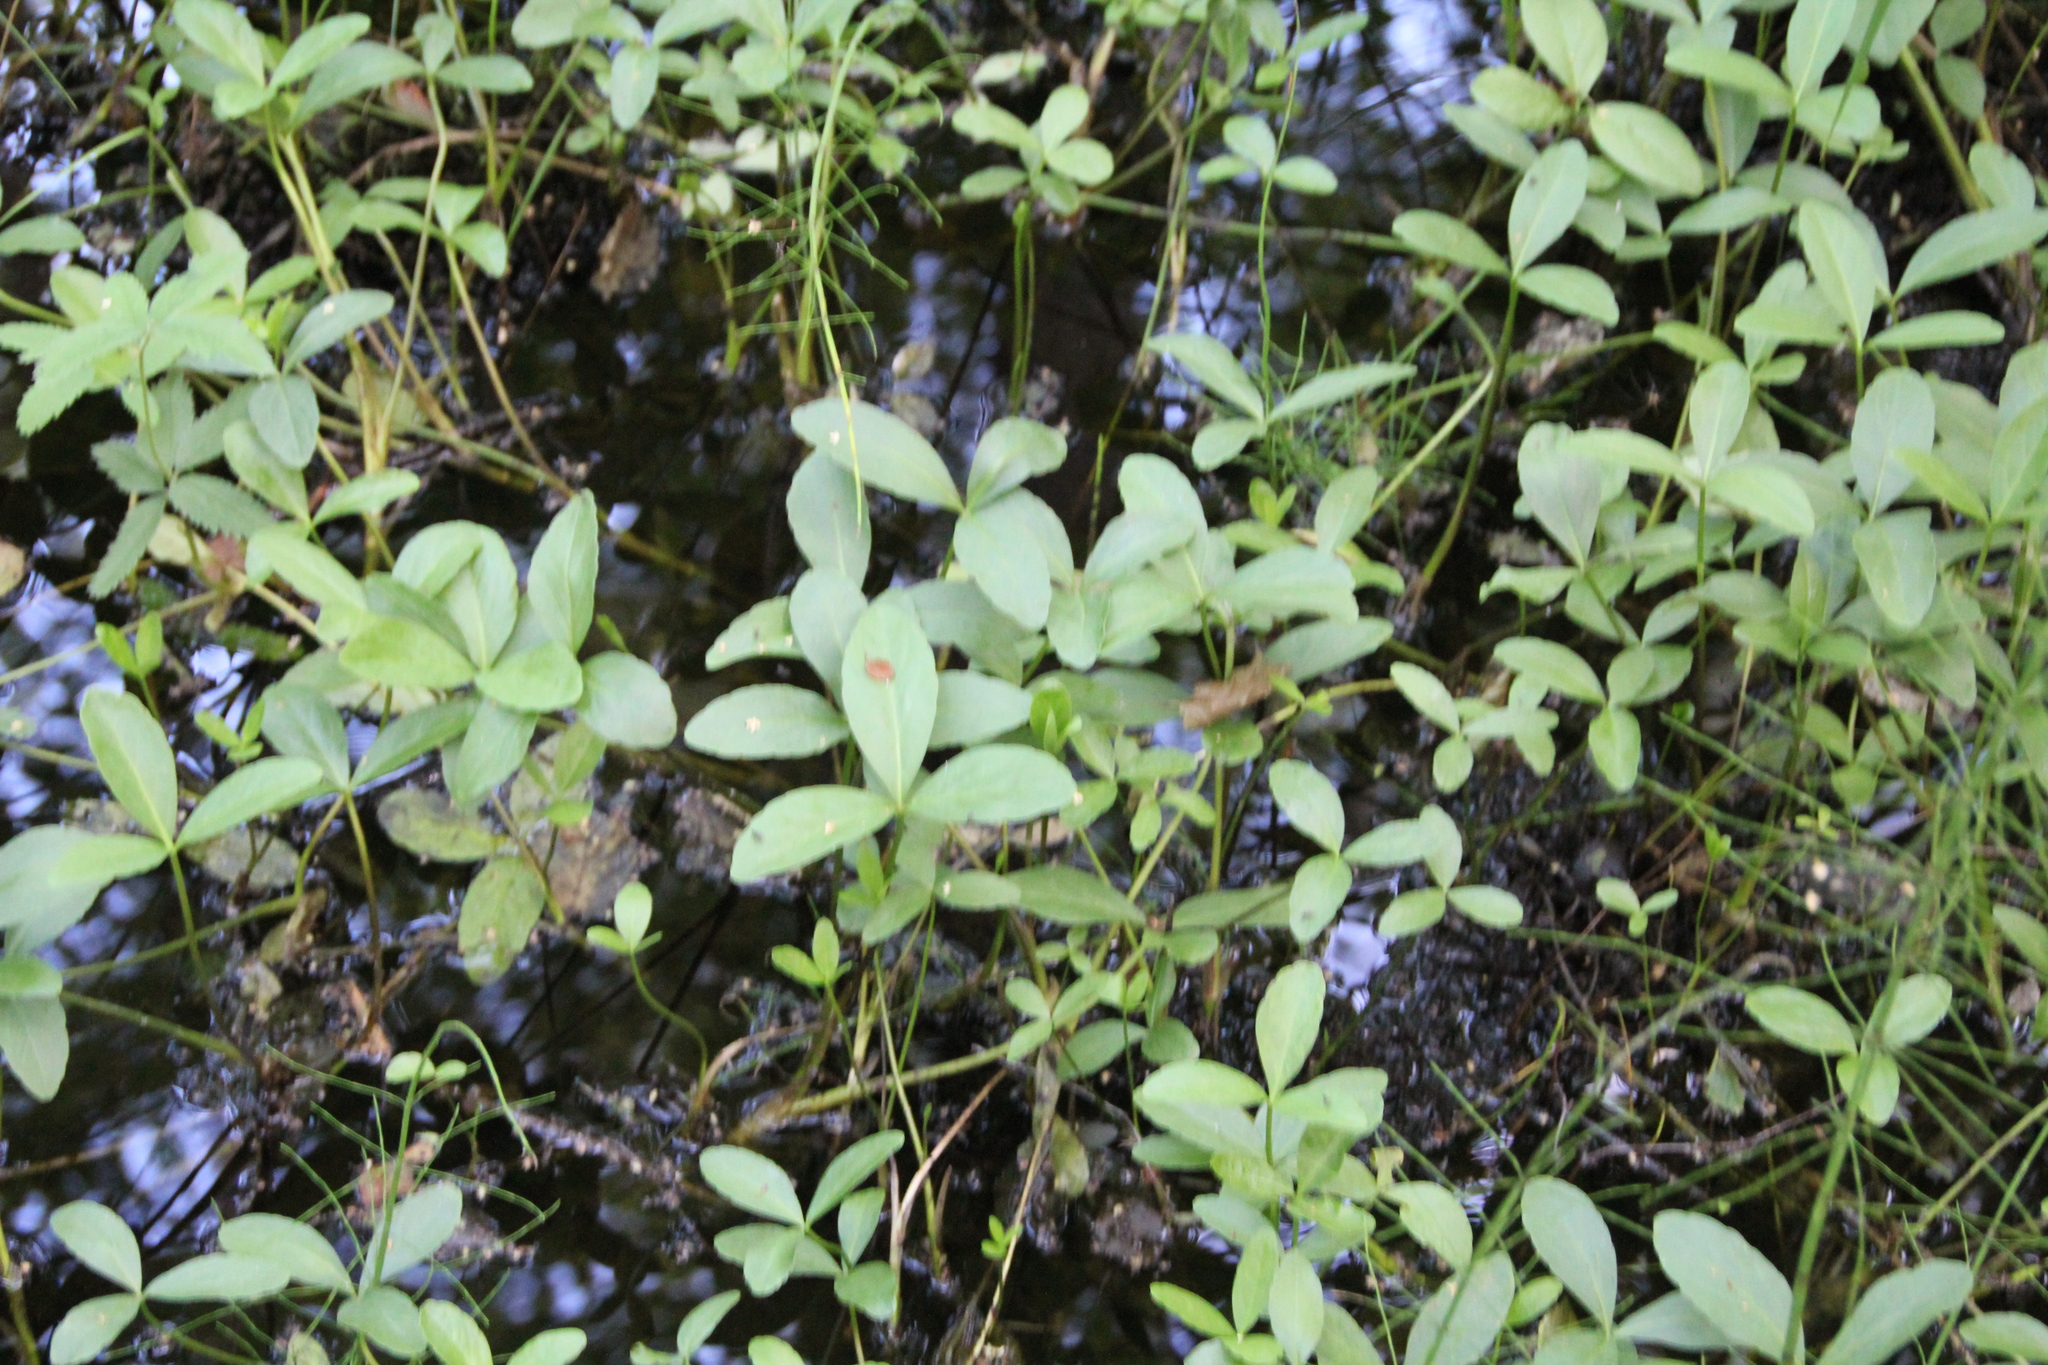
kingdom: Plantae
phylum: Tracheophyta
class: Magnoliopsida
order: Asterales
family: Menyanthaceae
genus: Menyanthes
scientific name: Menyanthes trifoliata
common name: Bogbean
